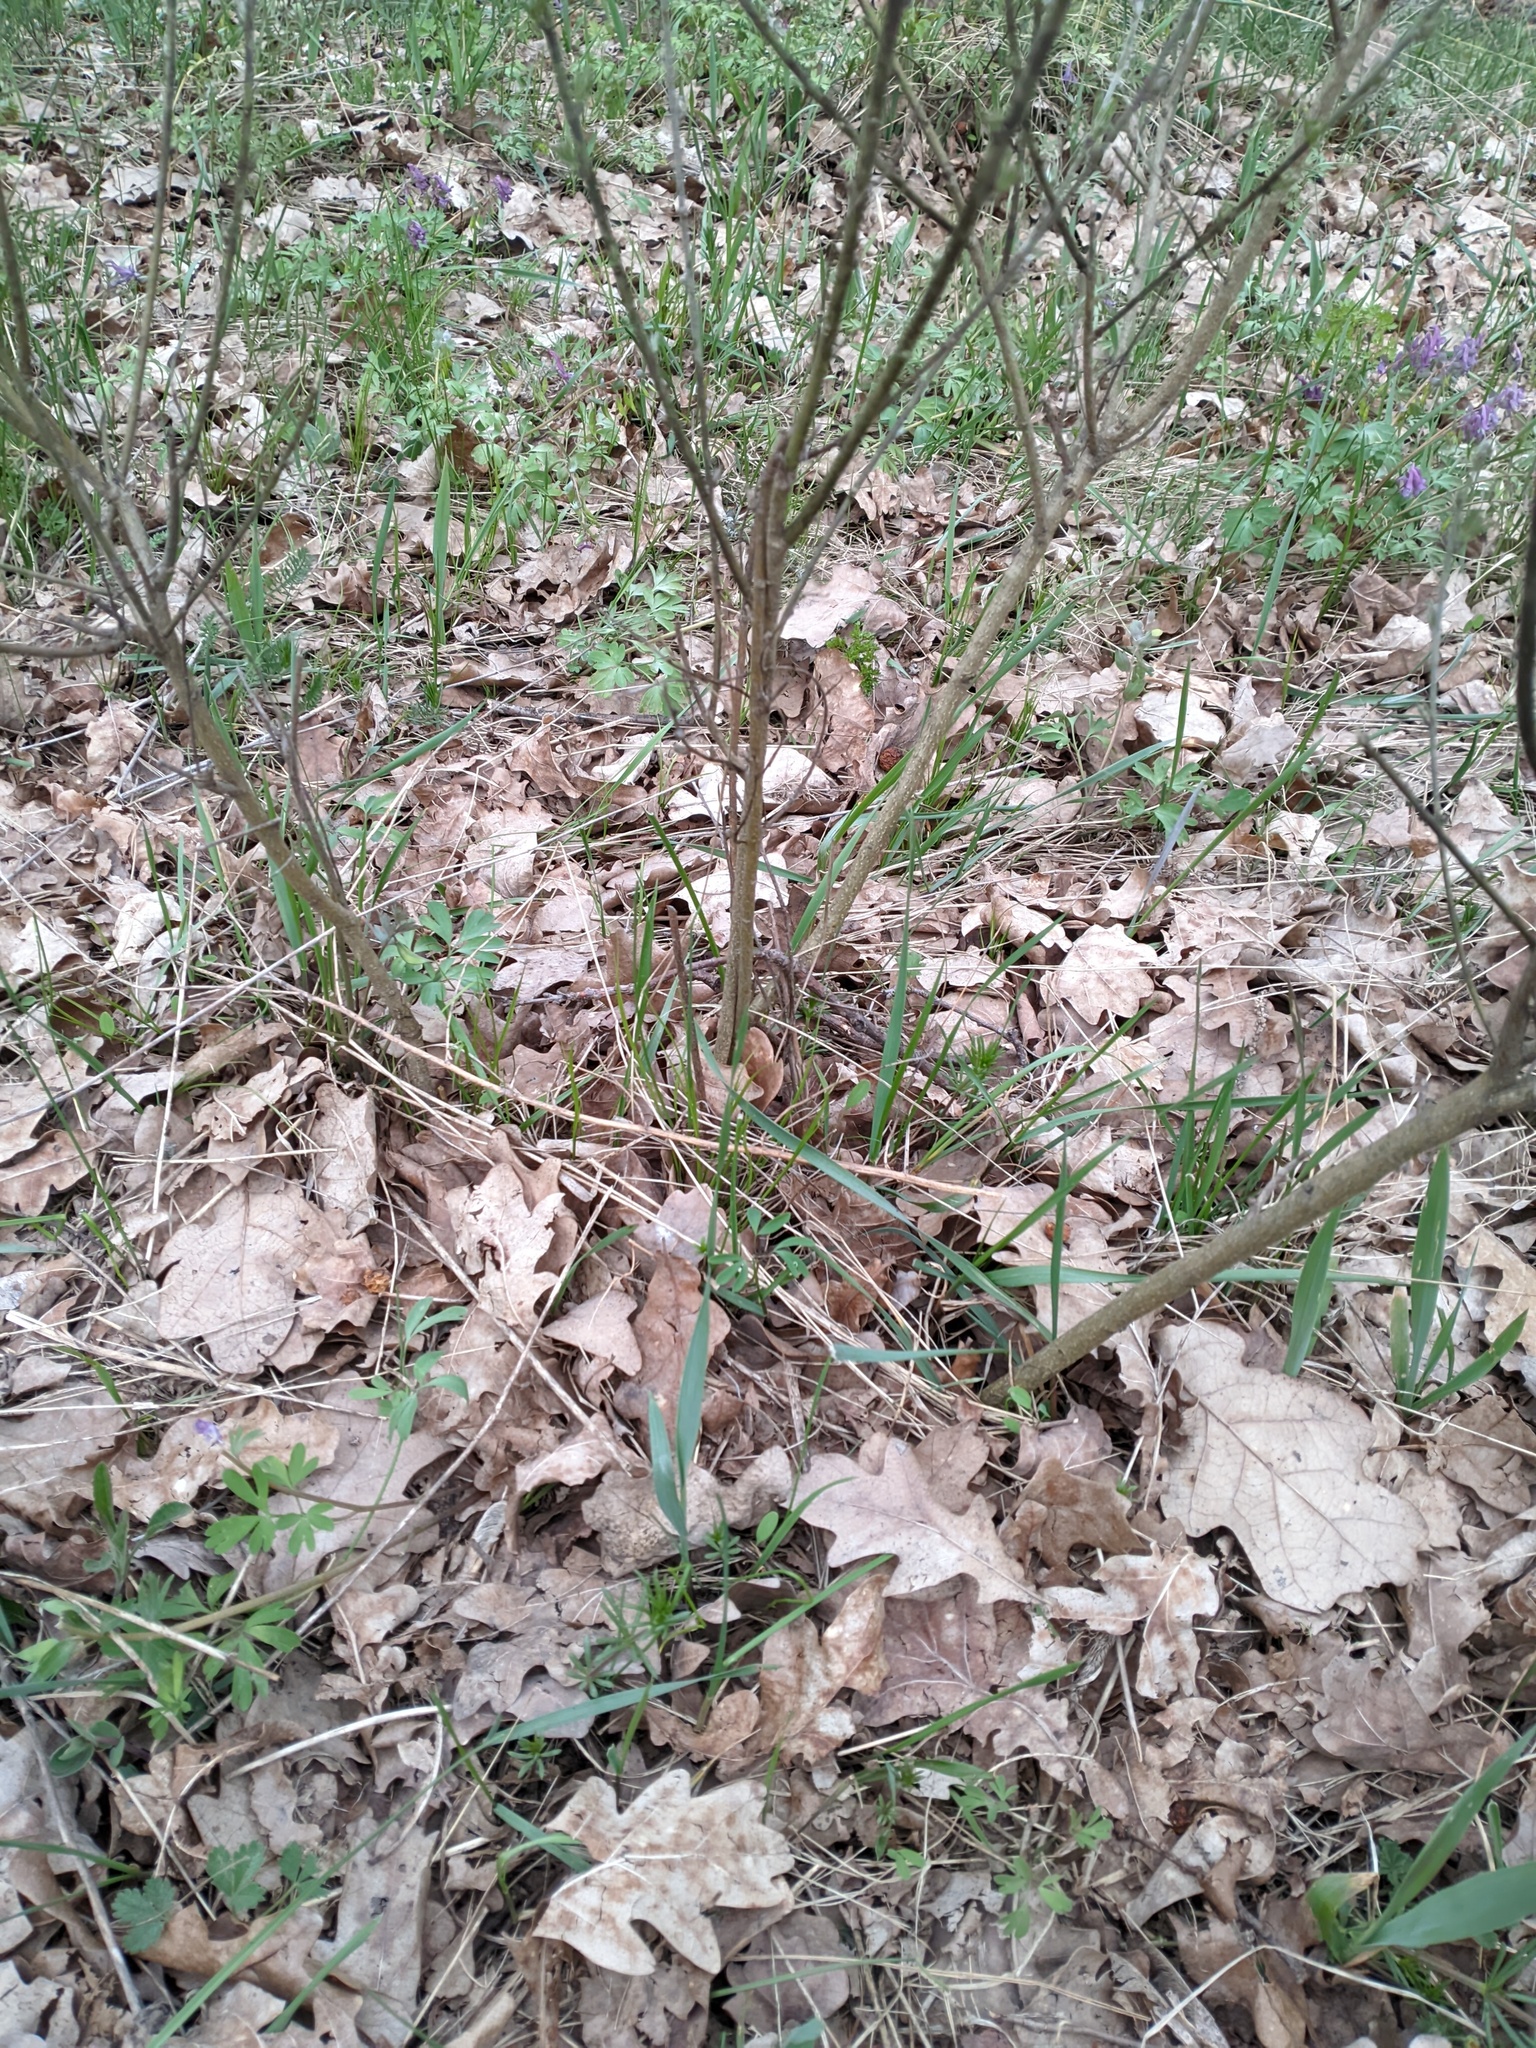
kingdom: Plantae
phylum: Tracheophyta
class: Magnoliopsida
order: Fabales
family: Fabaceae
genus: Chamaecytisus
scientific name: Chamaecytisus ruthenicus
